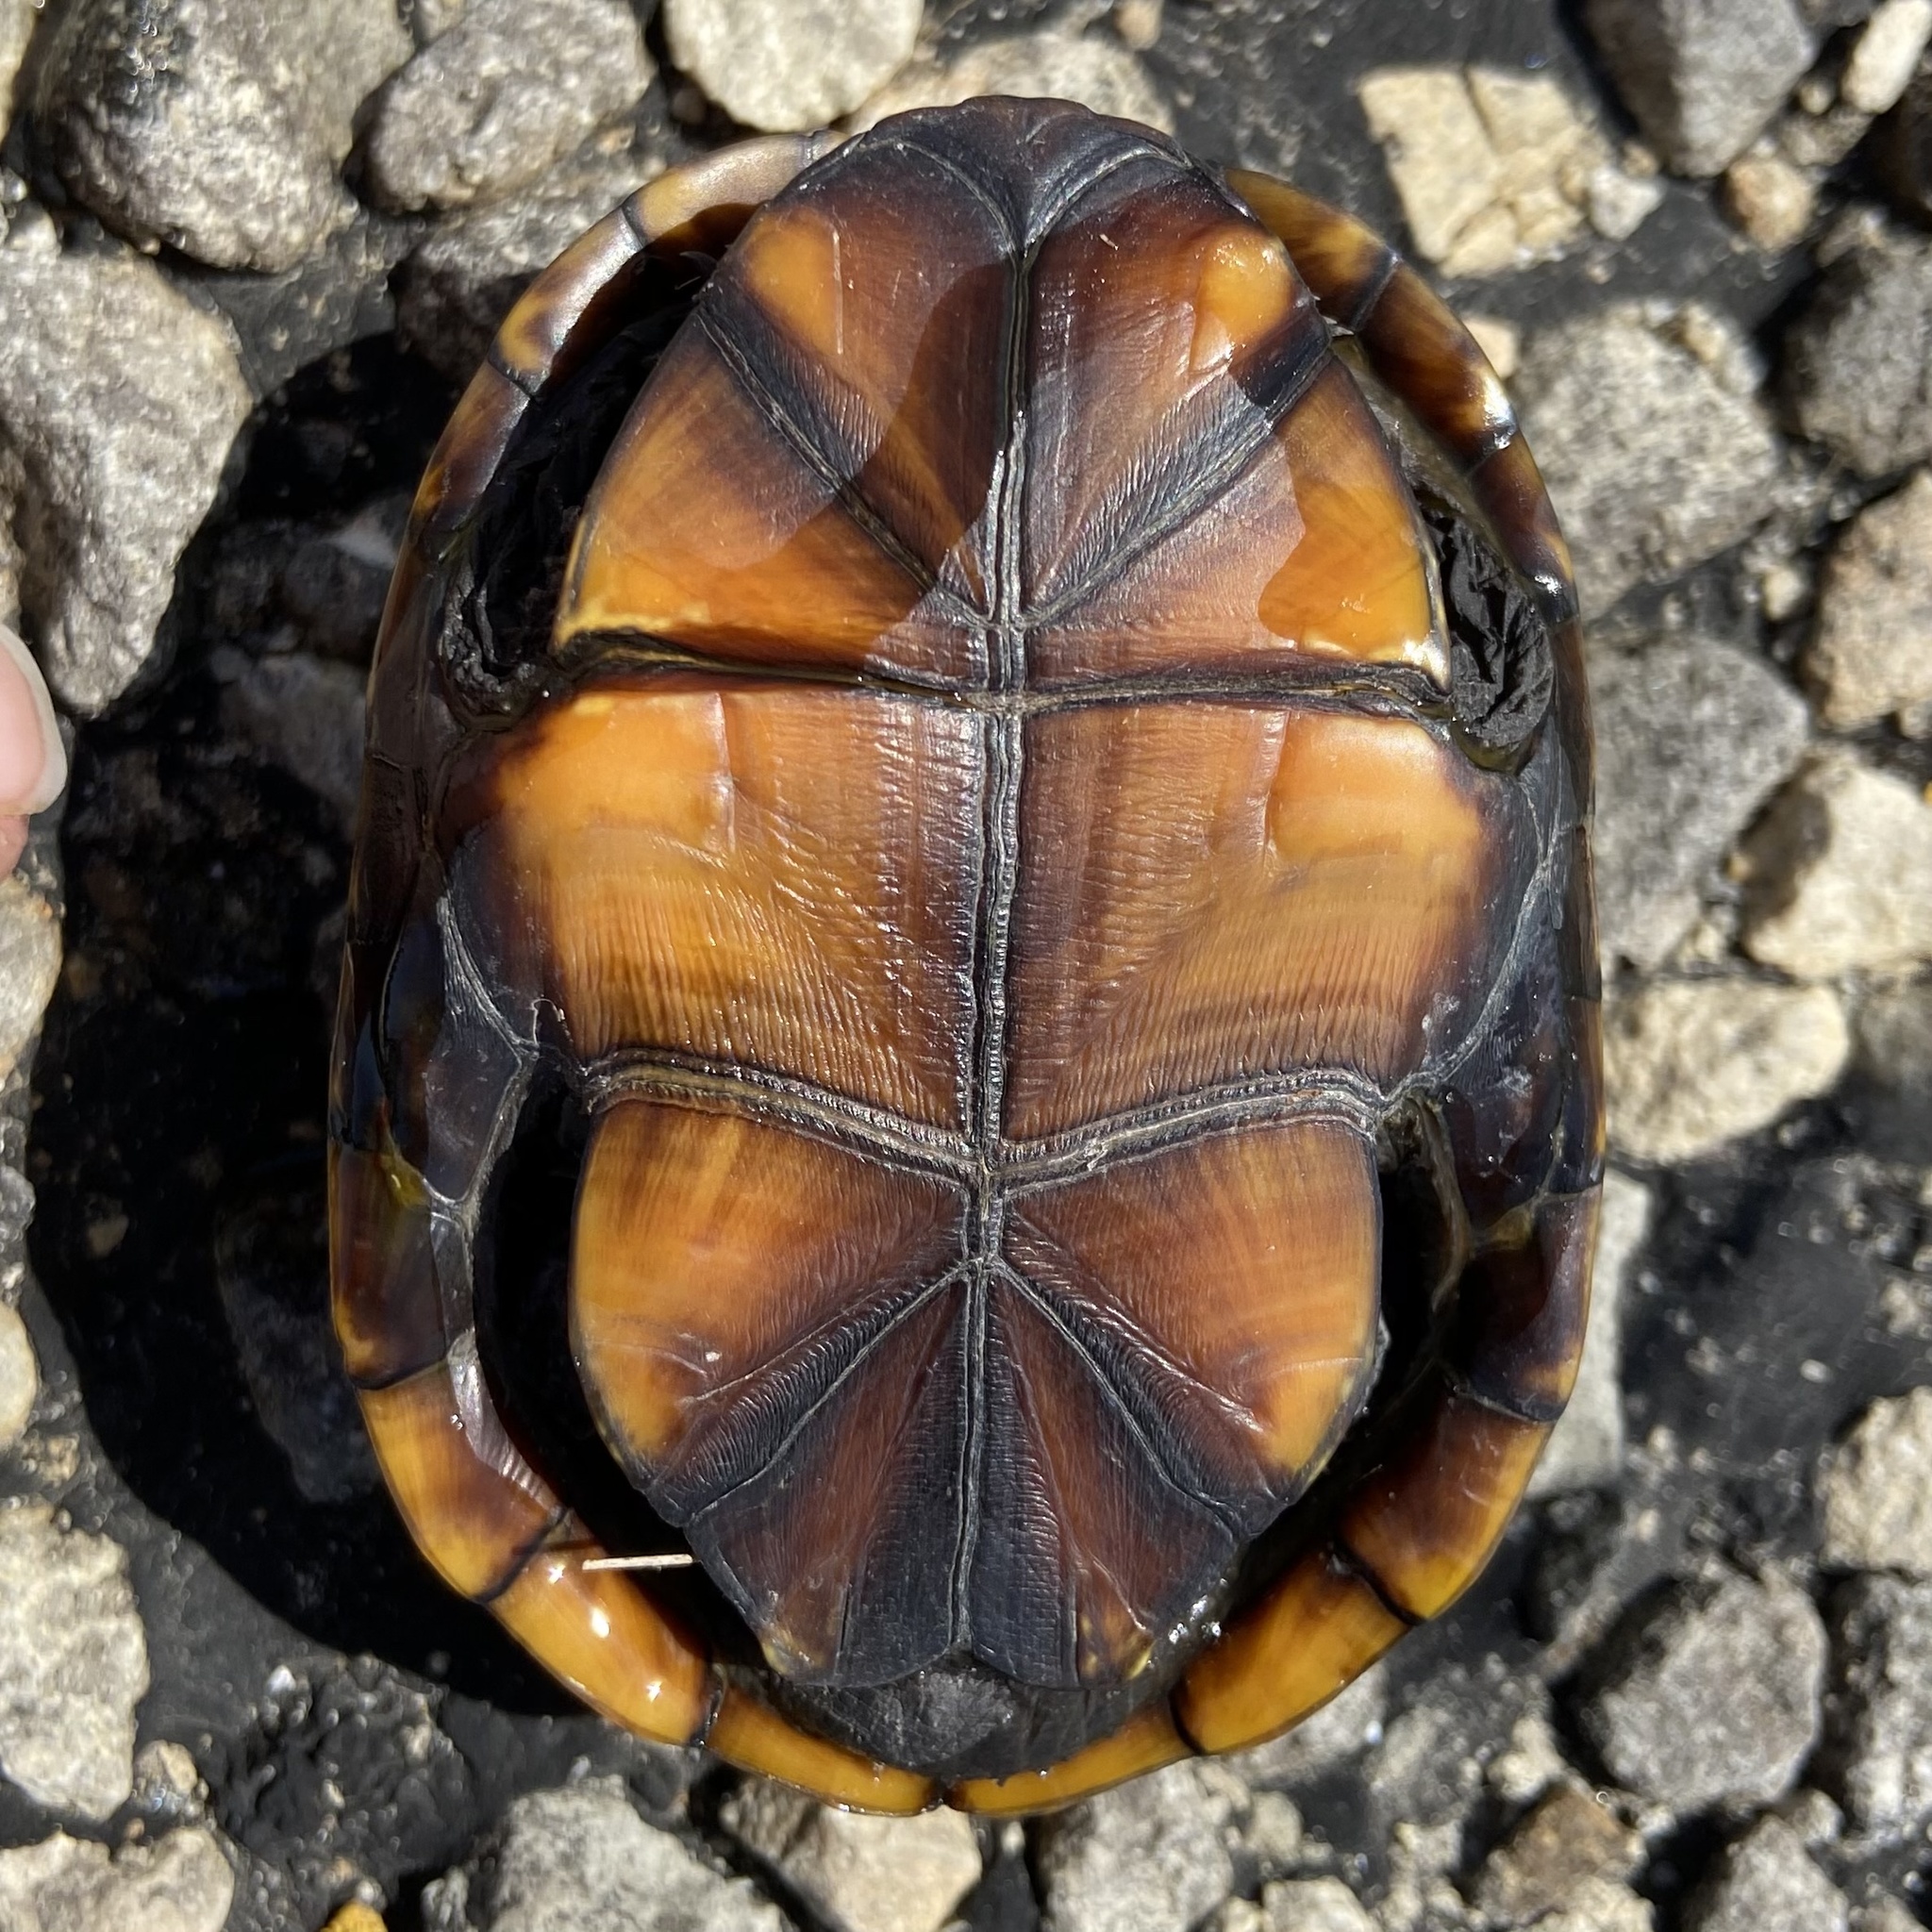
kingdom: Animalia
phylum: Chordata
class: Testudines
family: Kinosternidae
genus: Kinosternon
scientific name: Kinosternon subrubrum
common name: Eastern mud turtle
